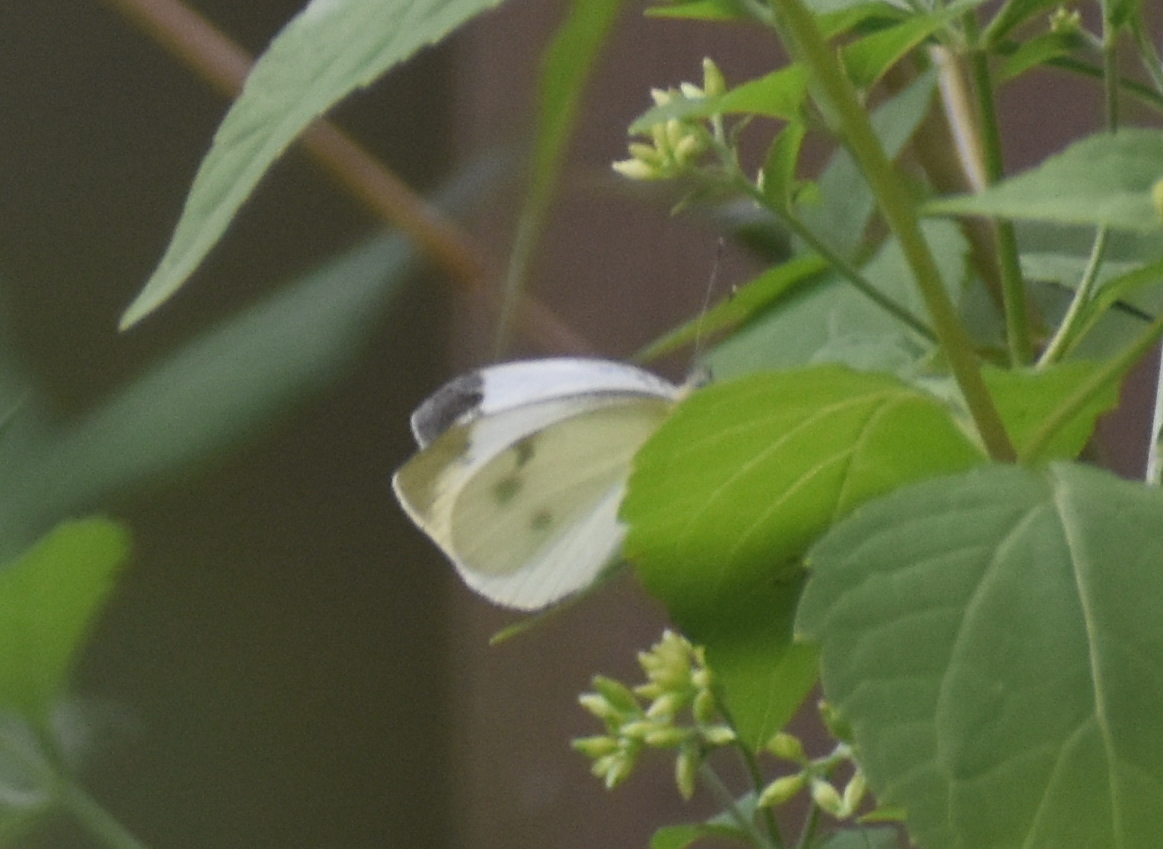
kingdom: Animalia
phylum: Arthropoda
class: Insecta
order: Lepidoptera
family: Pieridae
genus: Pieris
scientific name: Pieris rapae
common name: Small white
